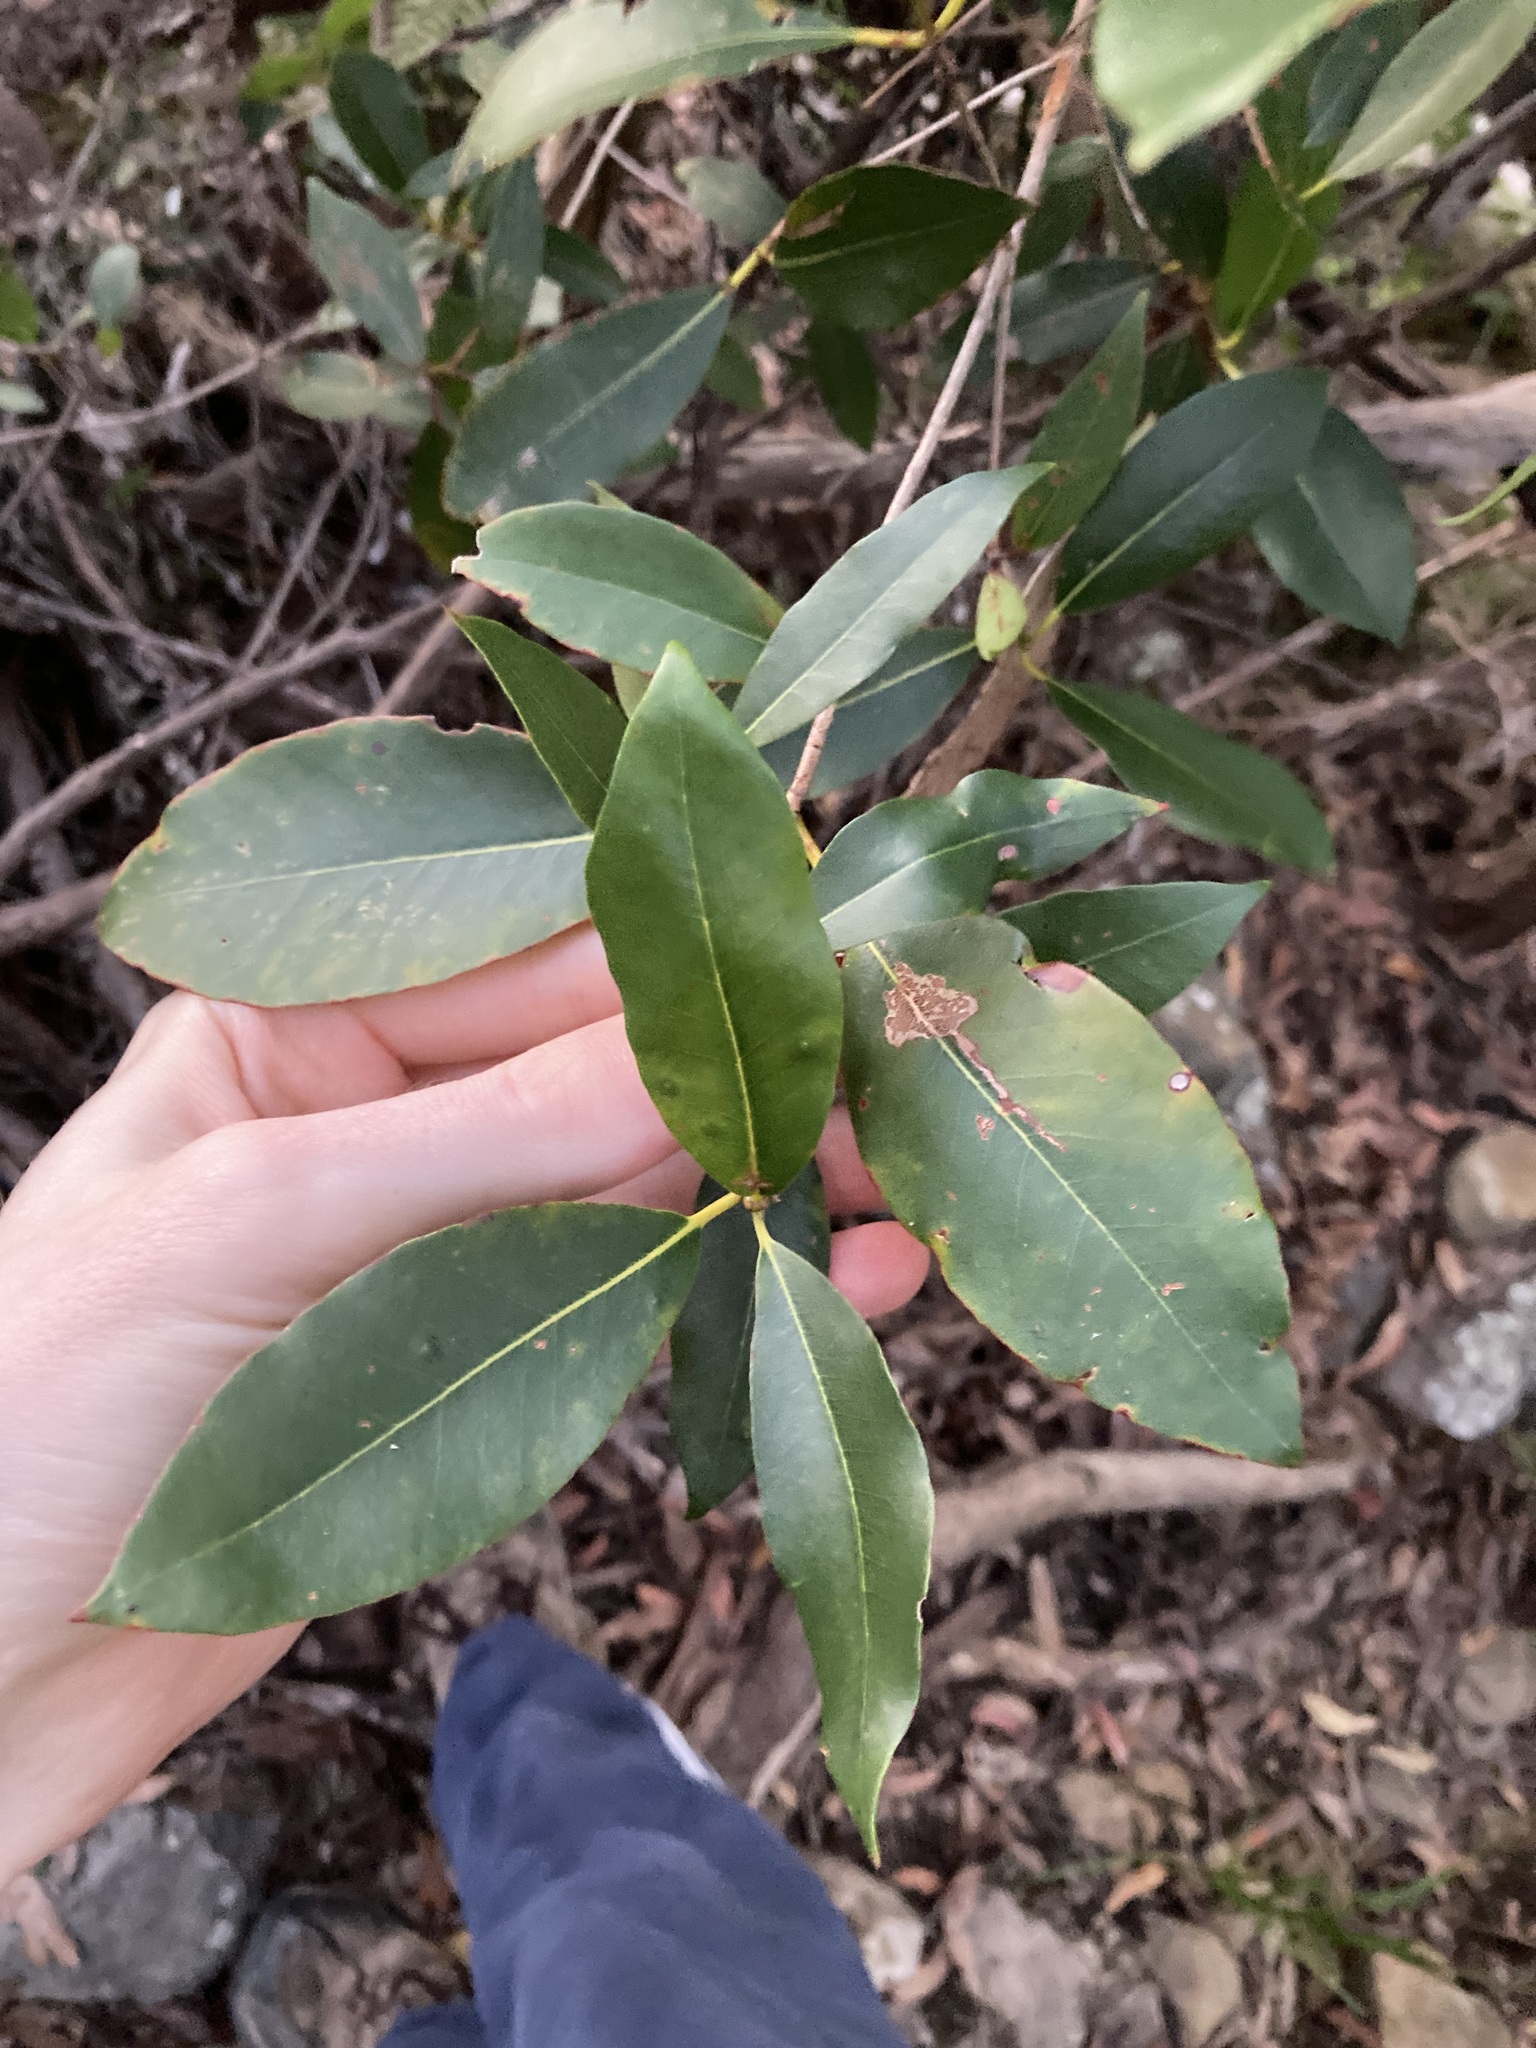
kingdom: Plantae
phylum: Tracheophyta
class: Magnoliopsida
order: Myrtales
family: Myrtaceae
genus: Syncarpia
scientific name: Syncarpia glomulifera
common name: Turpentine tree
